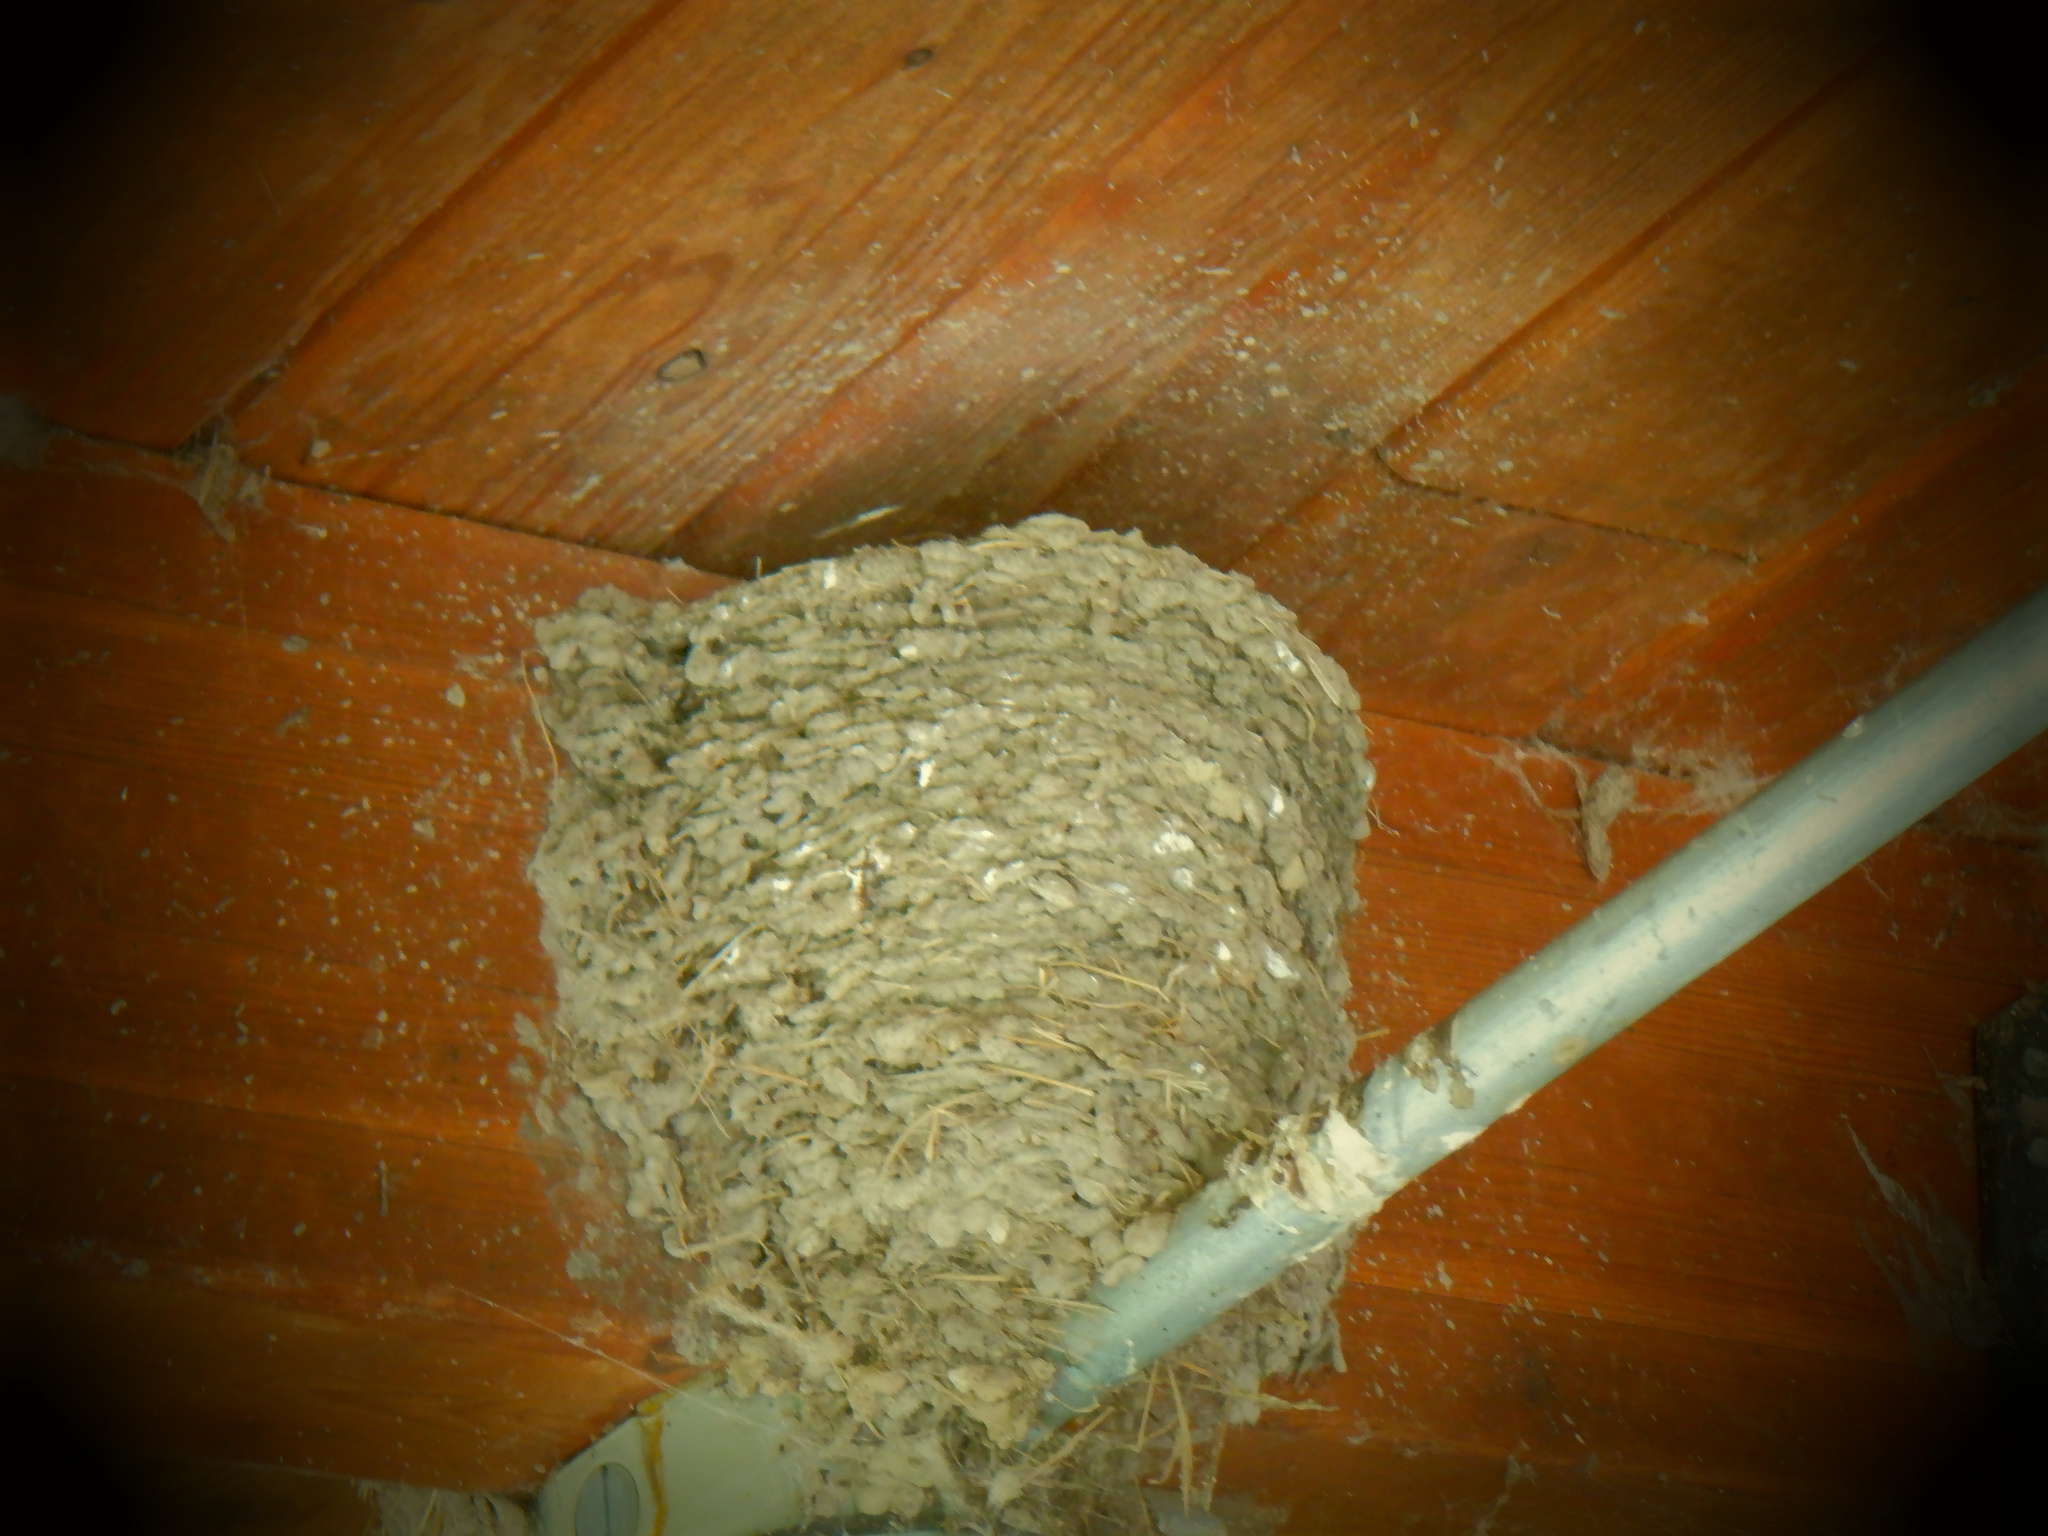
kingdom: Animalia
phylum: Chordata
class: Aves
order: Passeriformes
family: Hirundinidae
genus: Hirundo
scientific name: Hirundo rustica
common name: Barn swallow
